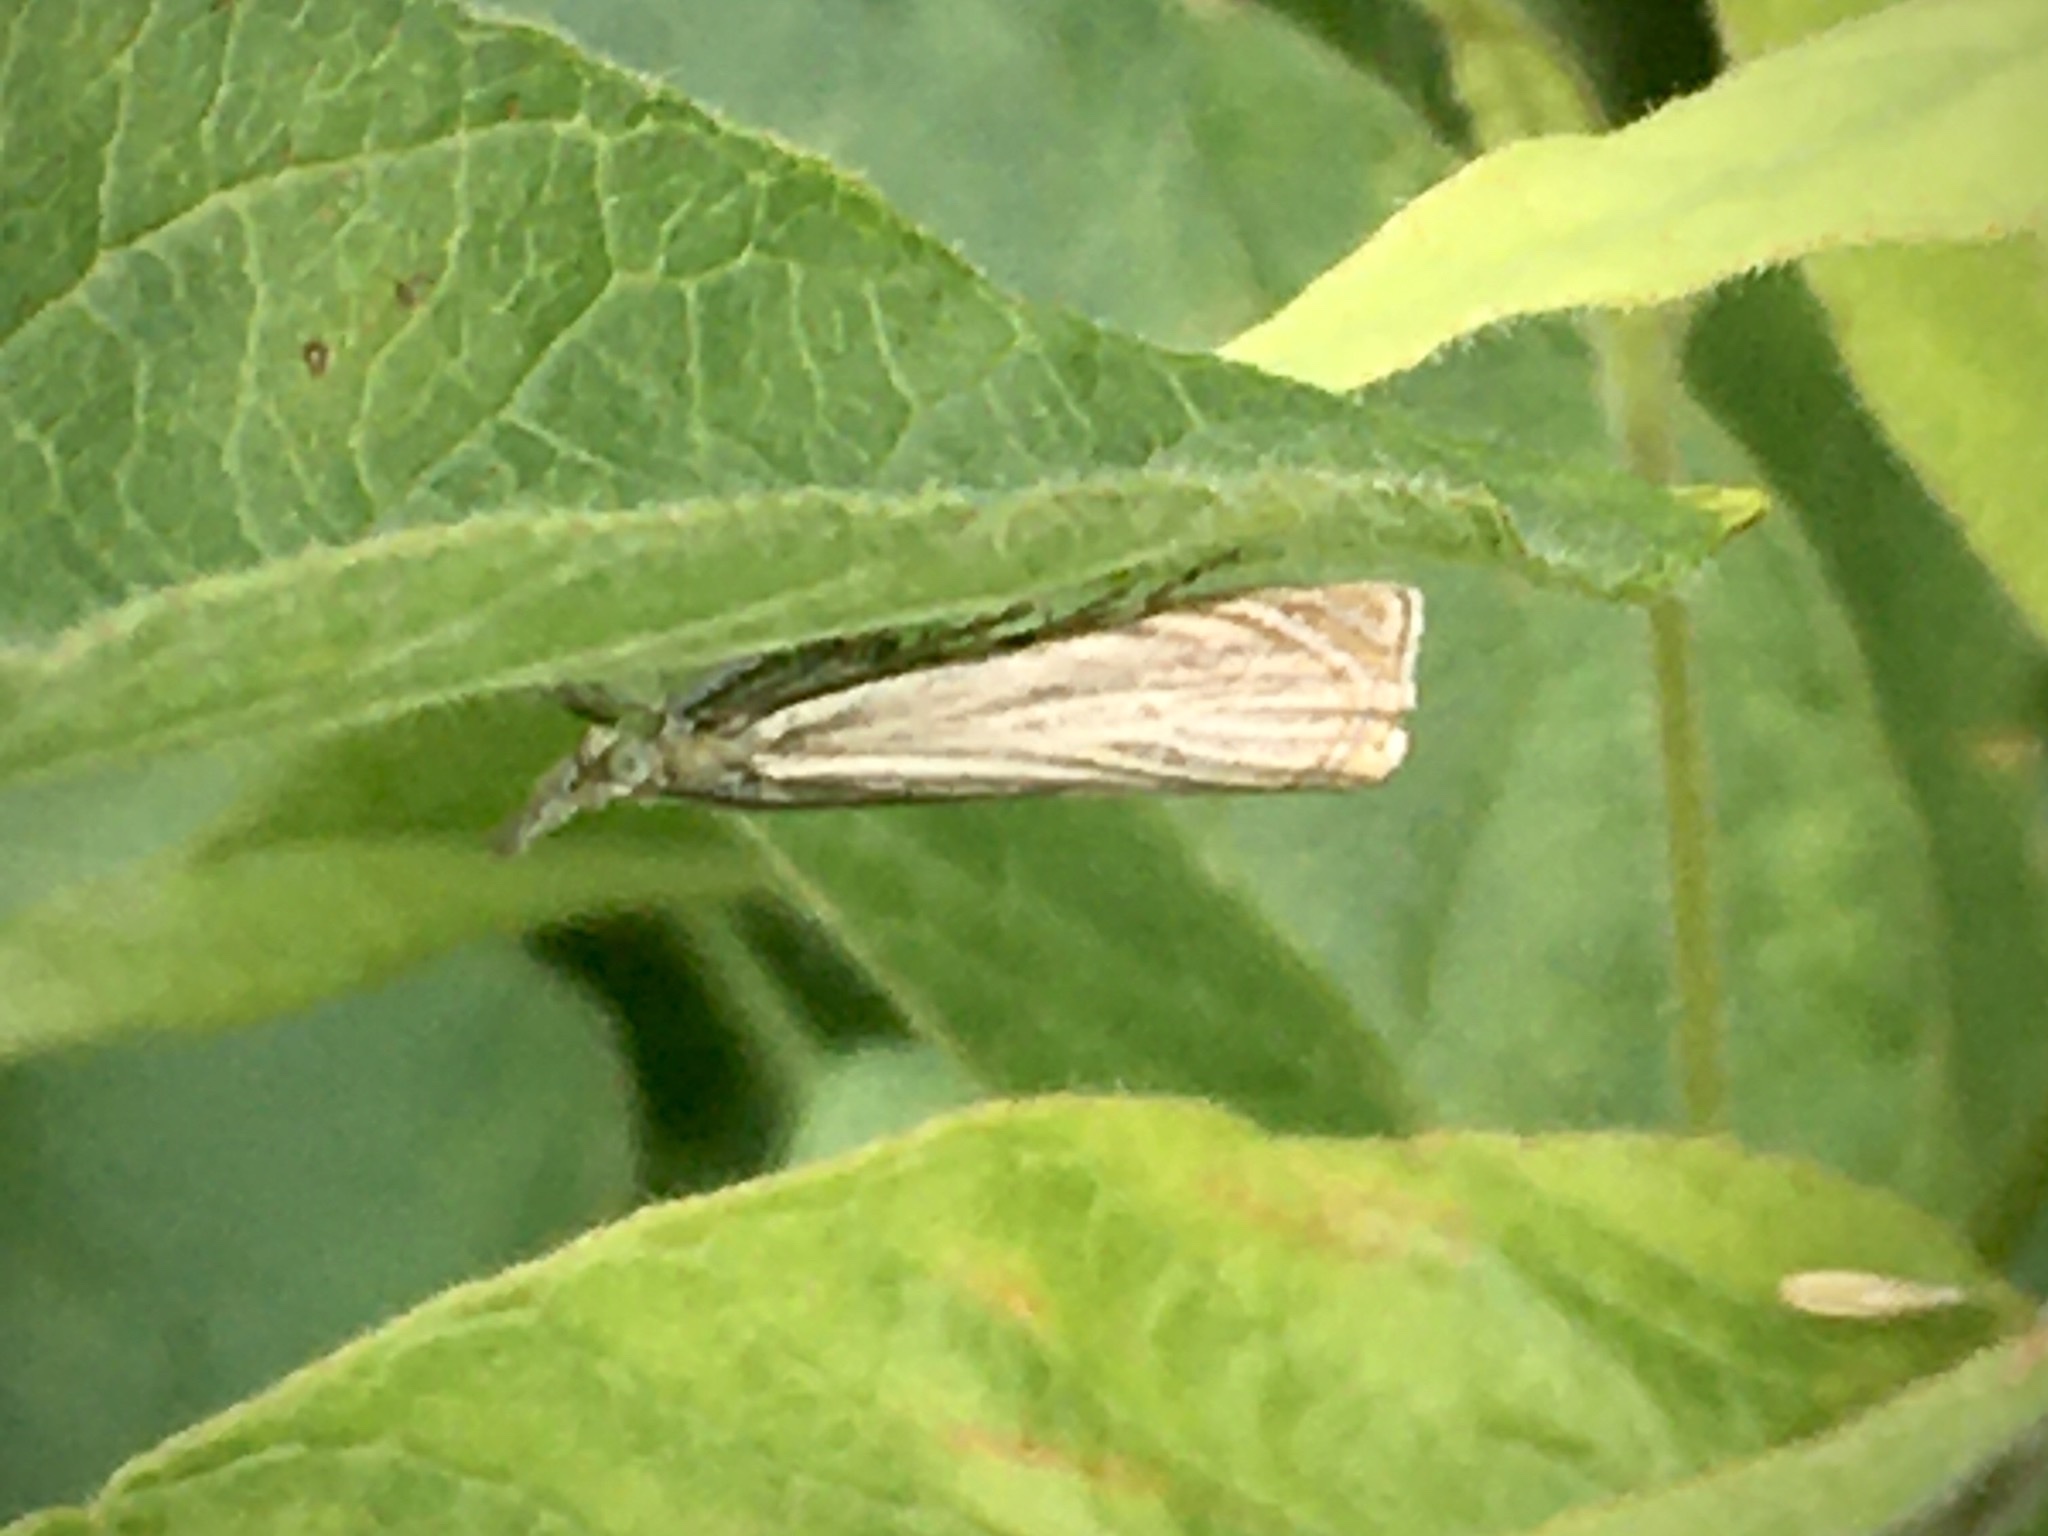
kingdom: Animalia
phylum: Arthropoda
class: Insecta
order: Lepidoptera
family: Crambidae
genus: Chrysoteuchia
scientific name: Chrysoteuchia culmella
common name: Garden grass-veneer
